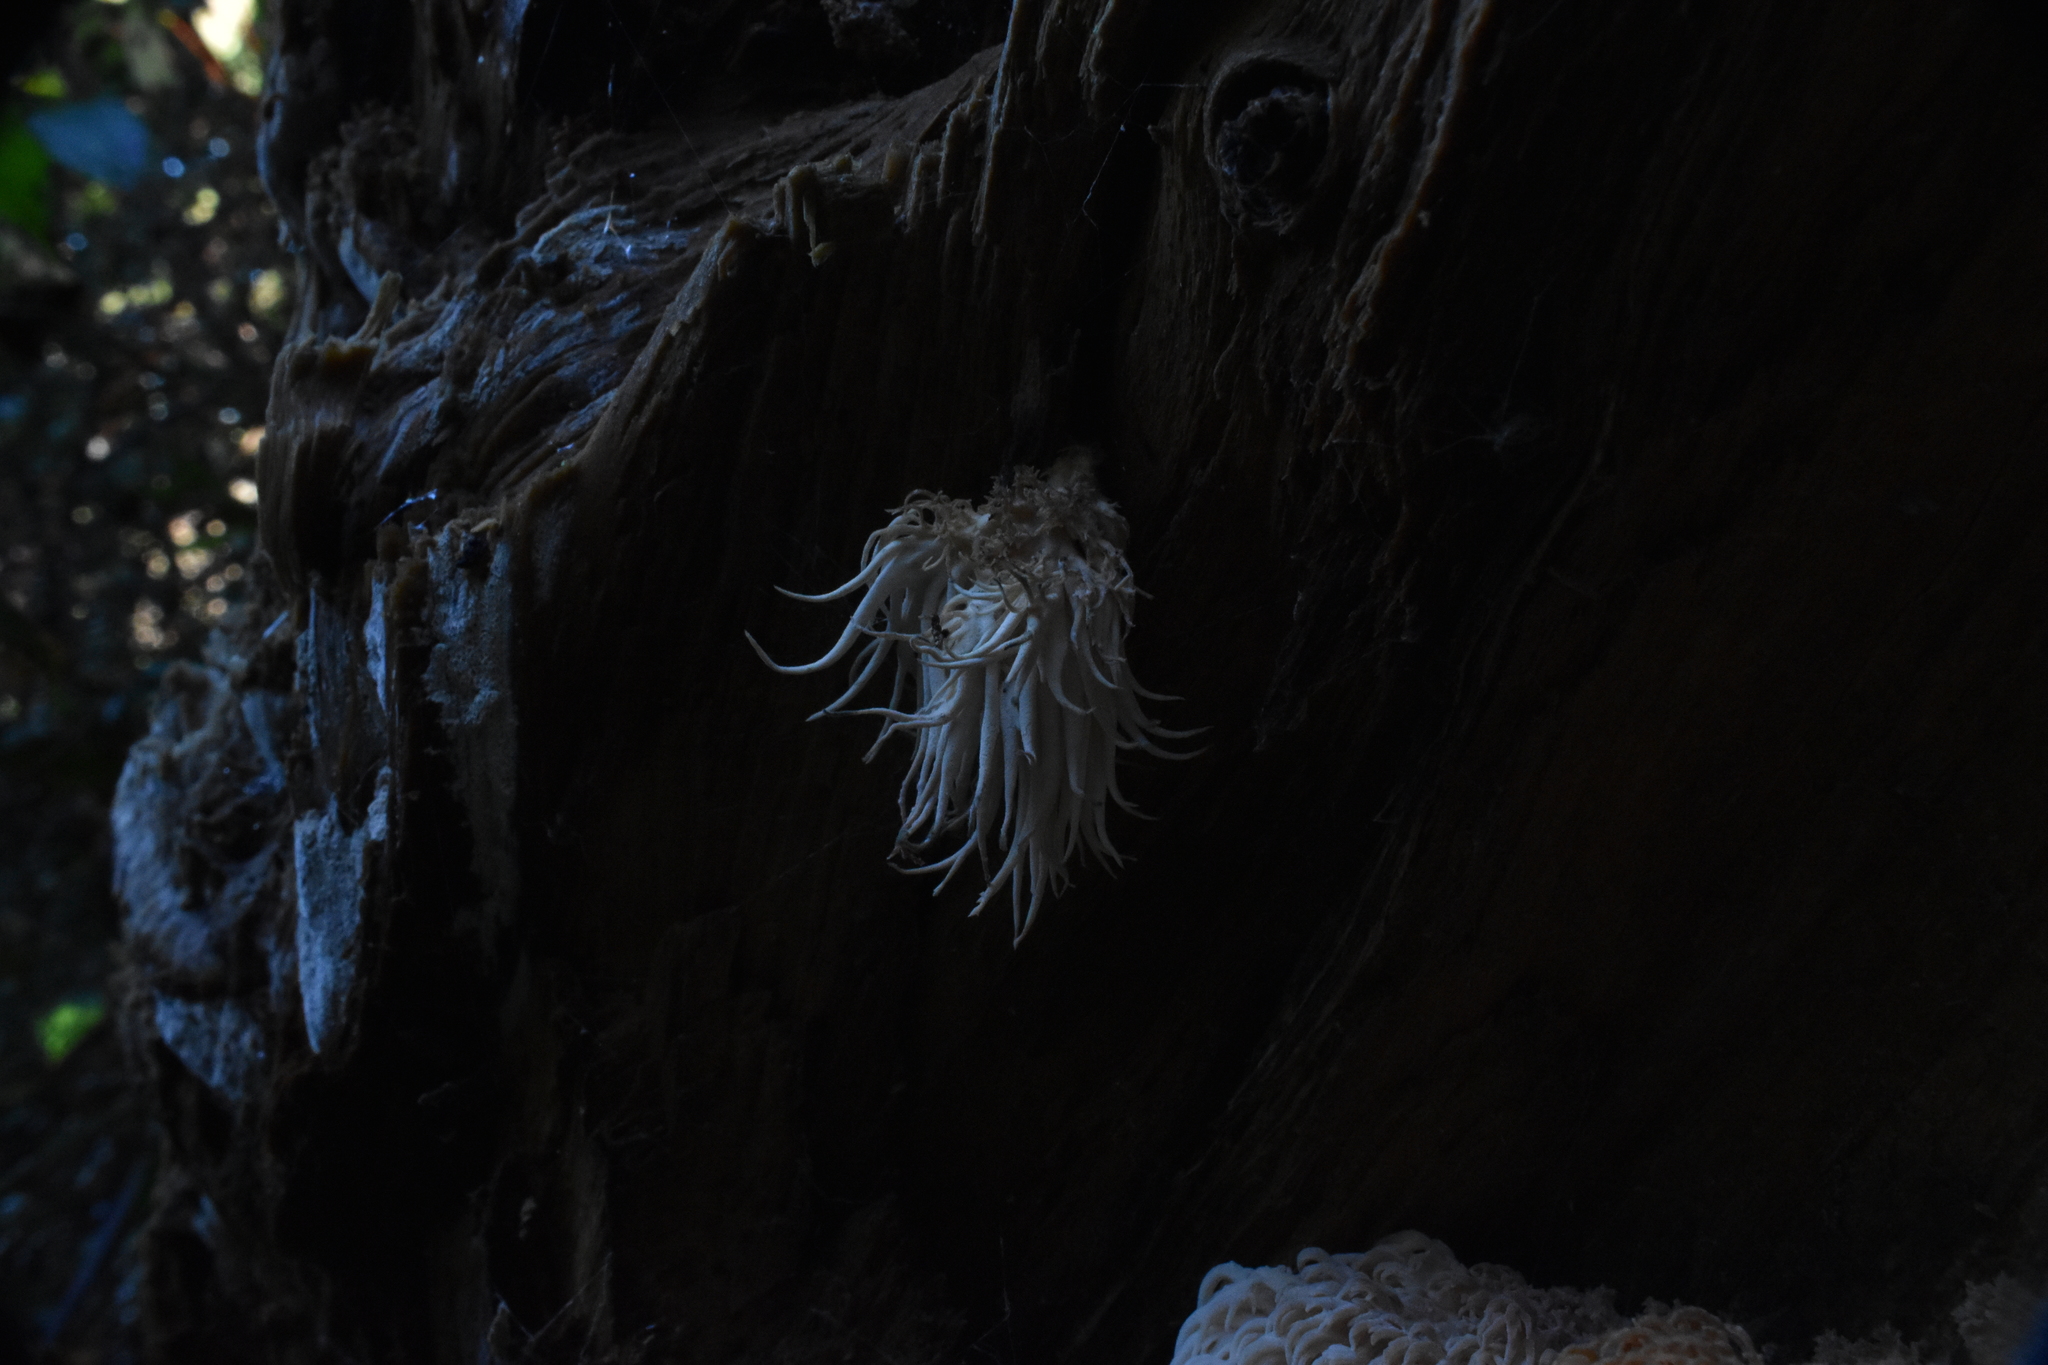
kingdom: Fungi
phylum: Basidiomycota
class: Agaricomycetes
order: Russulales
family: Hericiaceae
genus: Hericium
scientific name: Hericium novae-zealandiae
